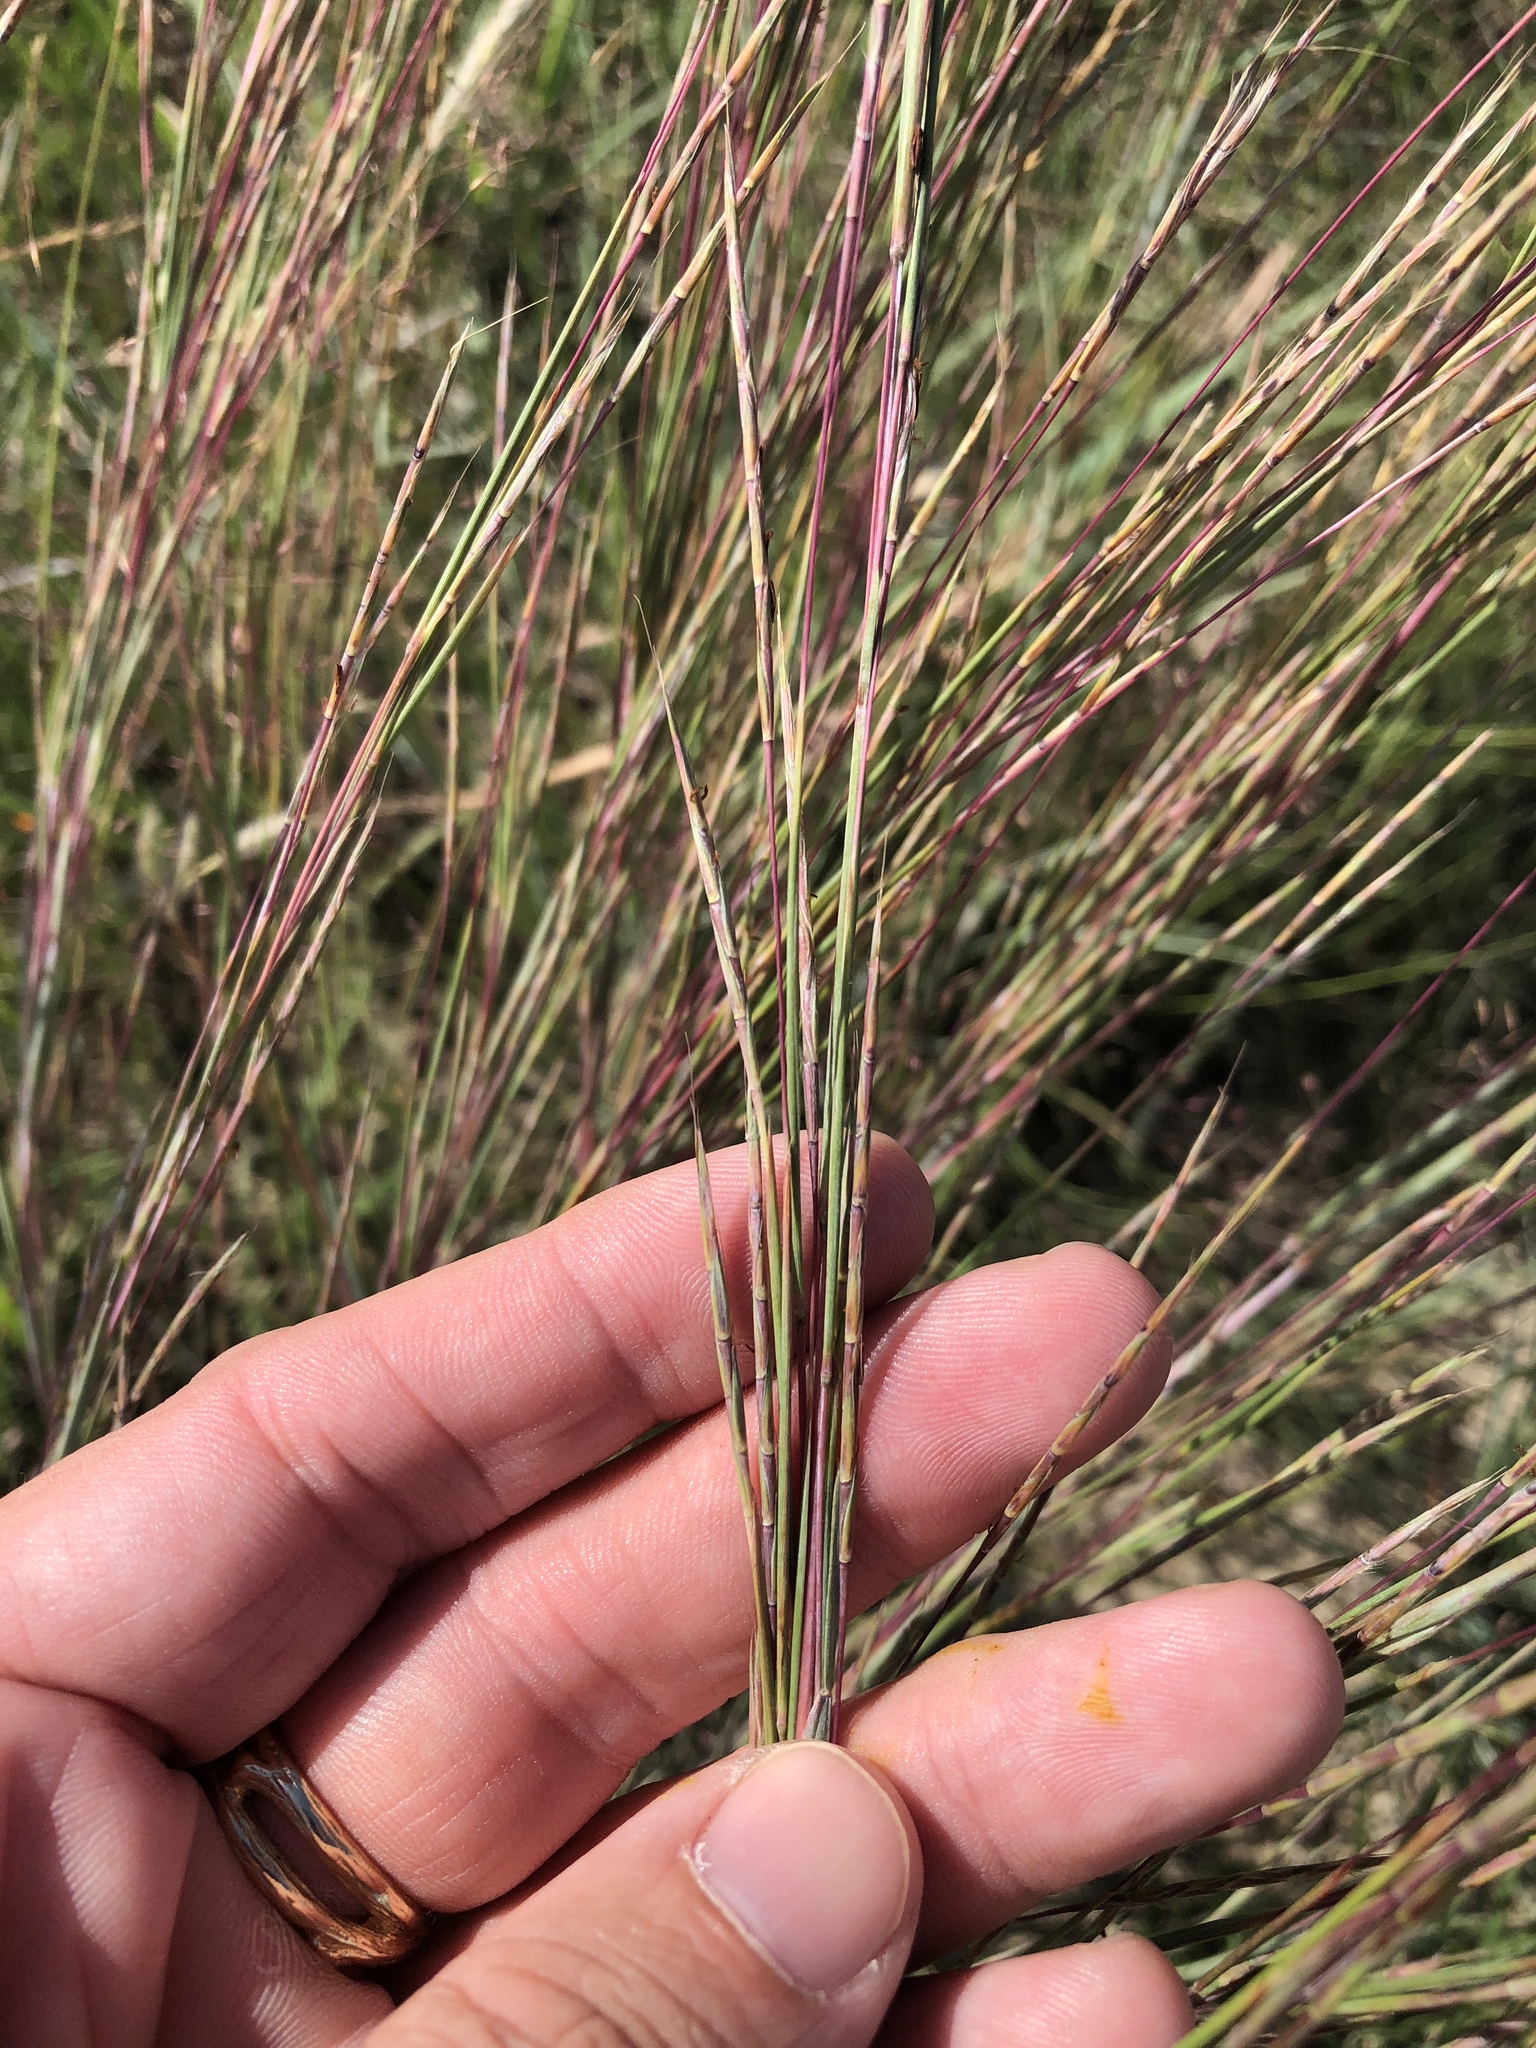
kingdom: Plantae
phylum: Tracheophyta
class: Liliopsida
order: Poales
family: Poaceae
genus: Schizachyrium
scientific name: Schizachyrium scoparium
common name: Little bluestem
